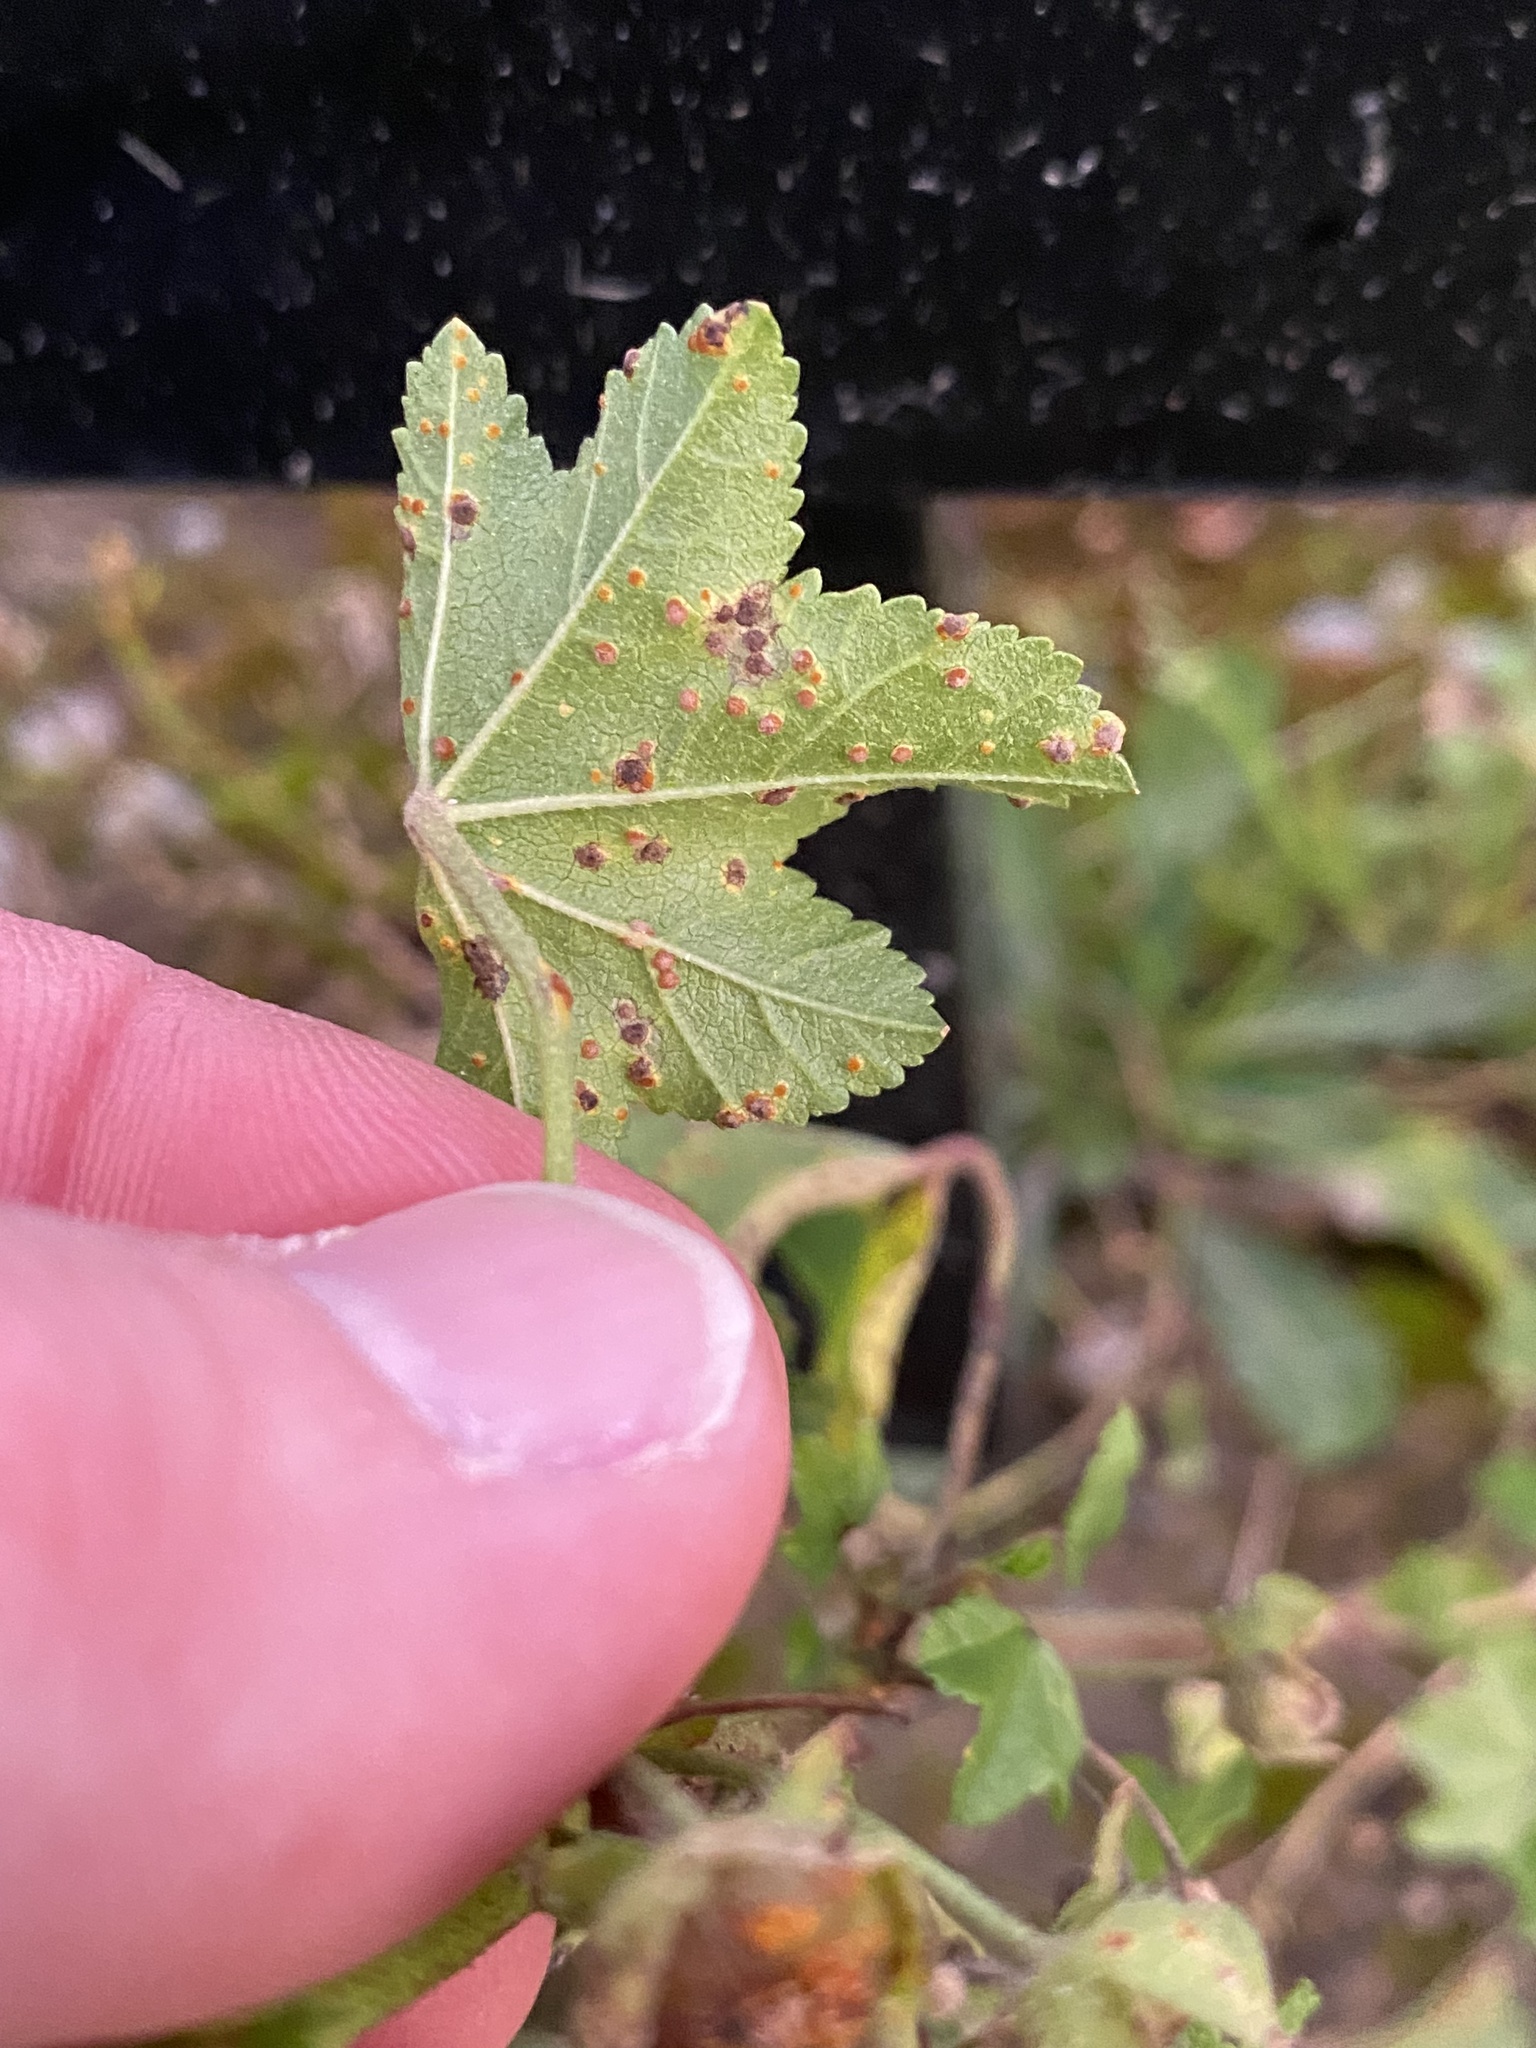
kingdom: Fungi
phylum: Basidiomycota
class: Pucciniomycetes
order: Pucciniales
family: Pucciniaceae
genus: Puccinia
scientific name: Puccinia malvacearum
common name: Hollyhock rust
